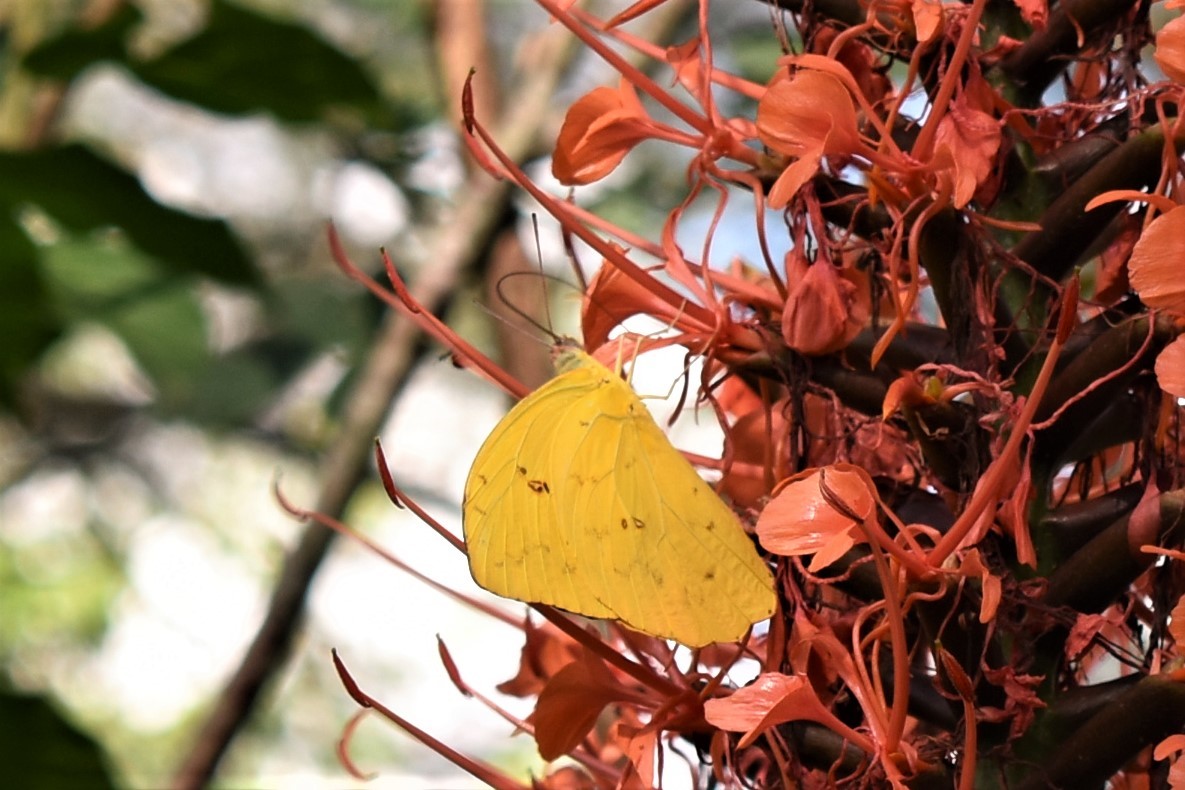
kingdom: Animalia
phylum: Arthropoda
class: Insecta
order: Lepidoptera
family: Pieridae
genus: Phoebis
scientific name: Phoebis neocypris
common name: Tailed sulphur
